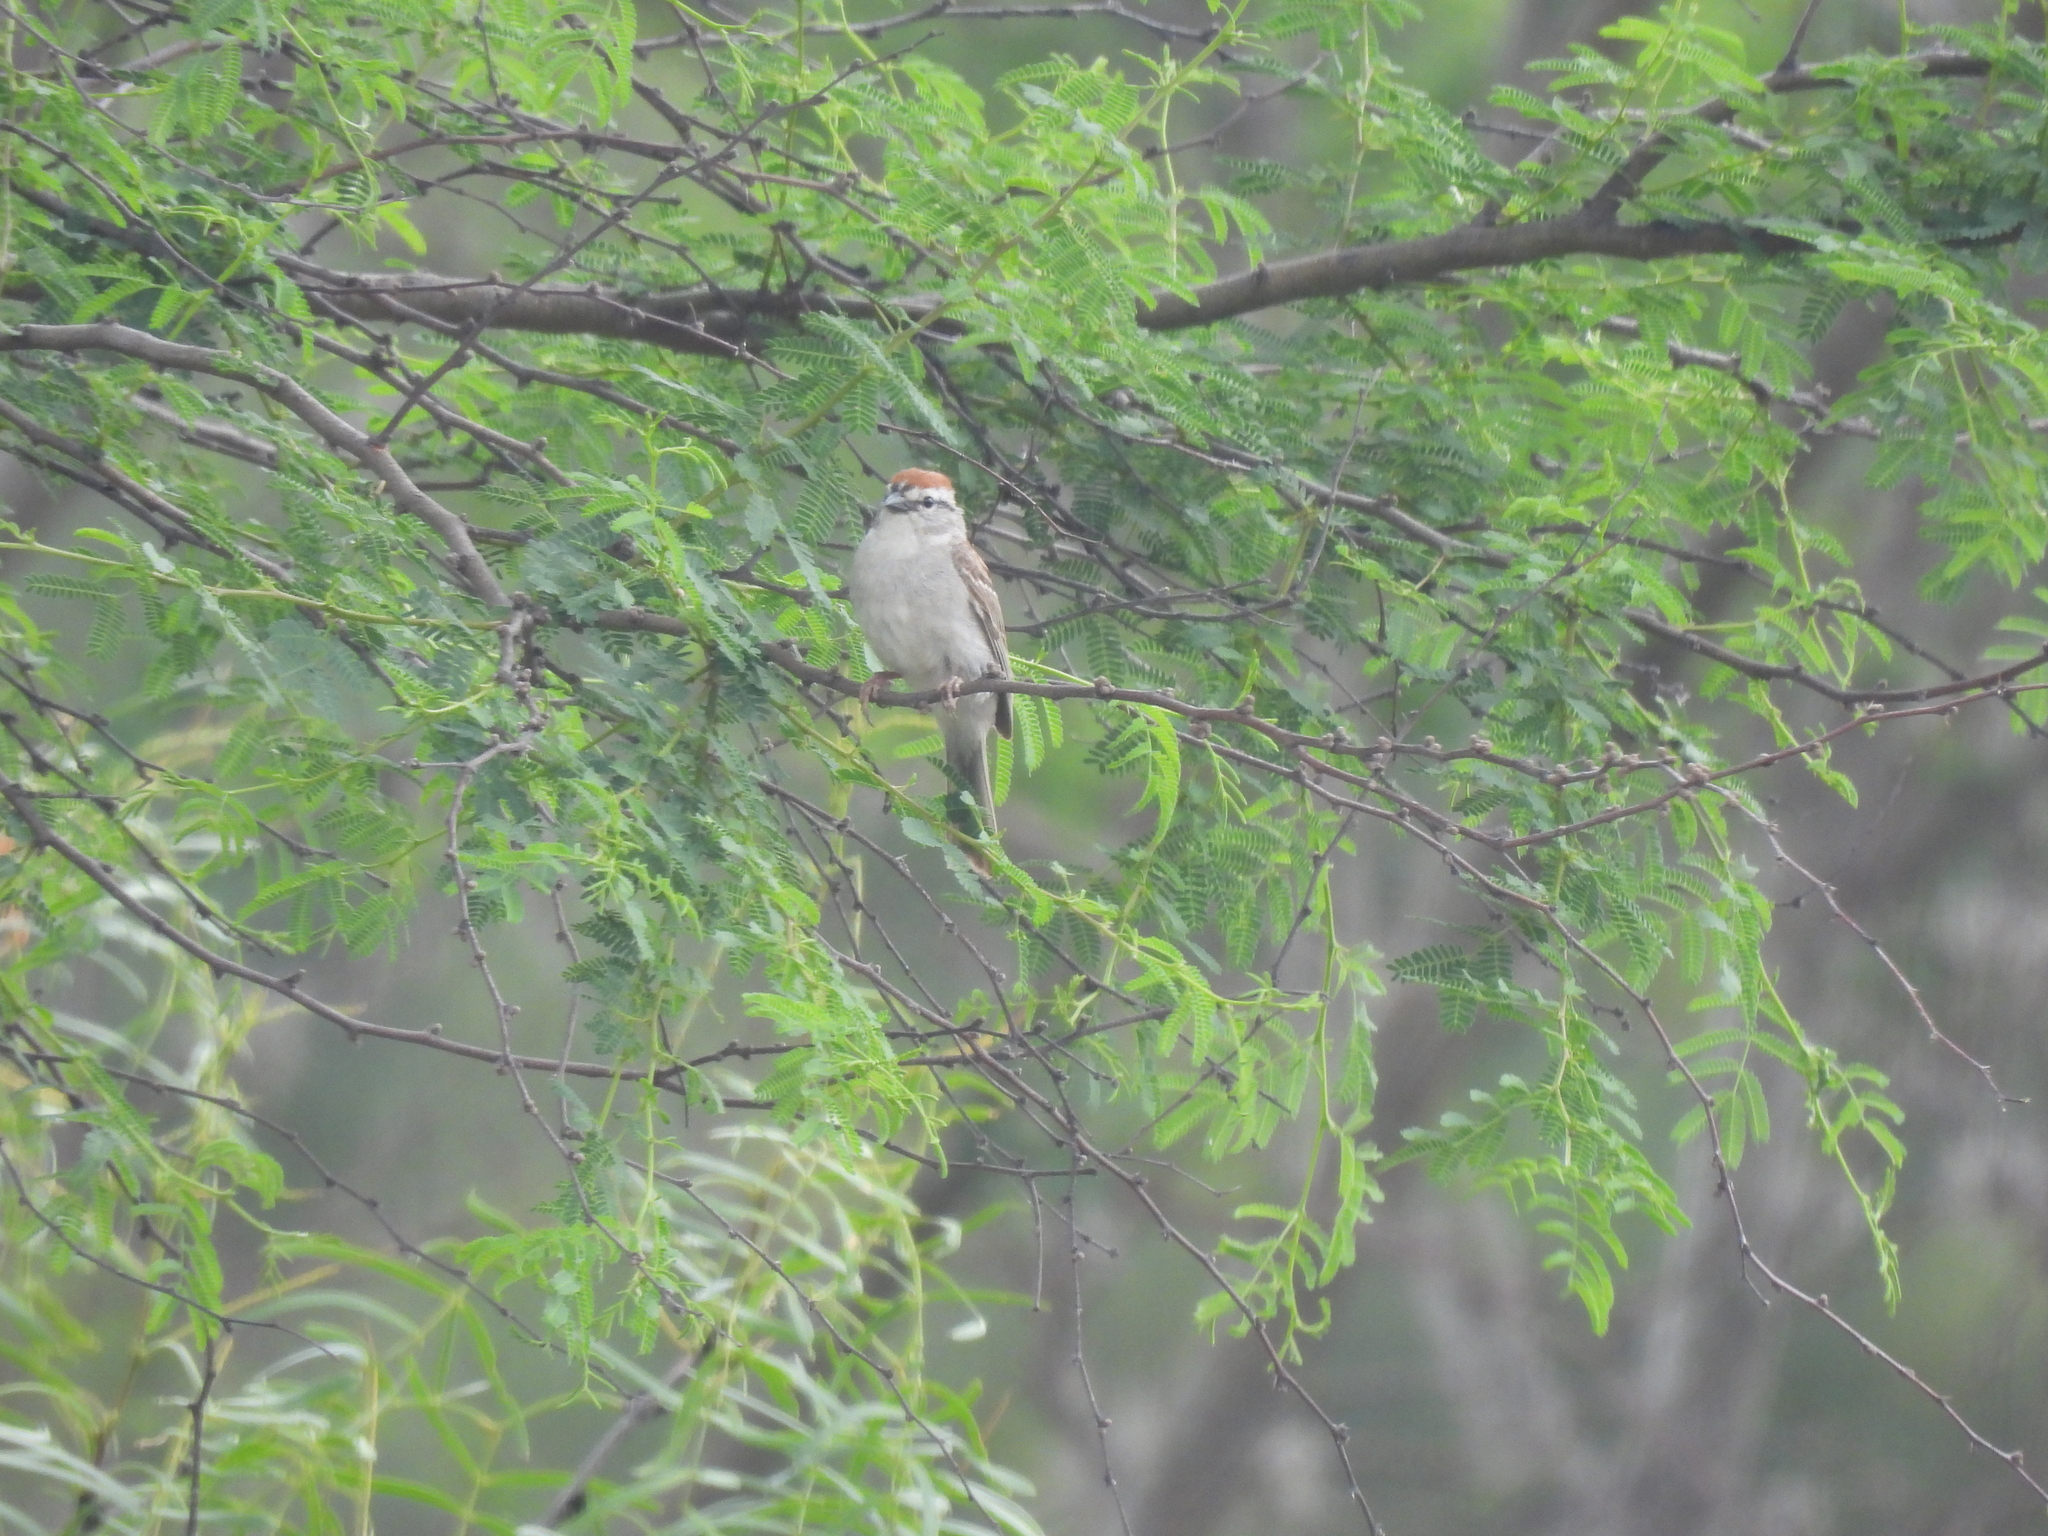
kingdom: Animalia
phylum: Chordata
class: Aves
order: Passeriformes
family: Passerellidae
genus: Chondestes
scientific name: Chondestes grammacus
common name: Lark sparrow
